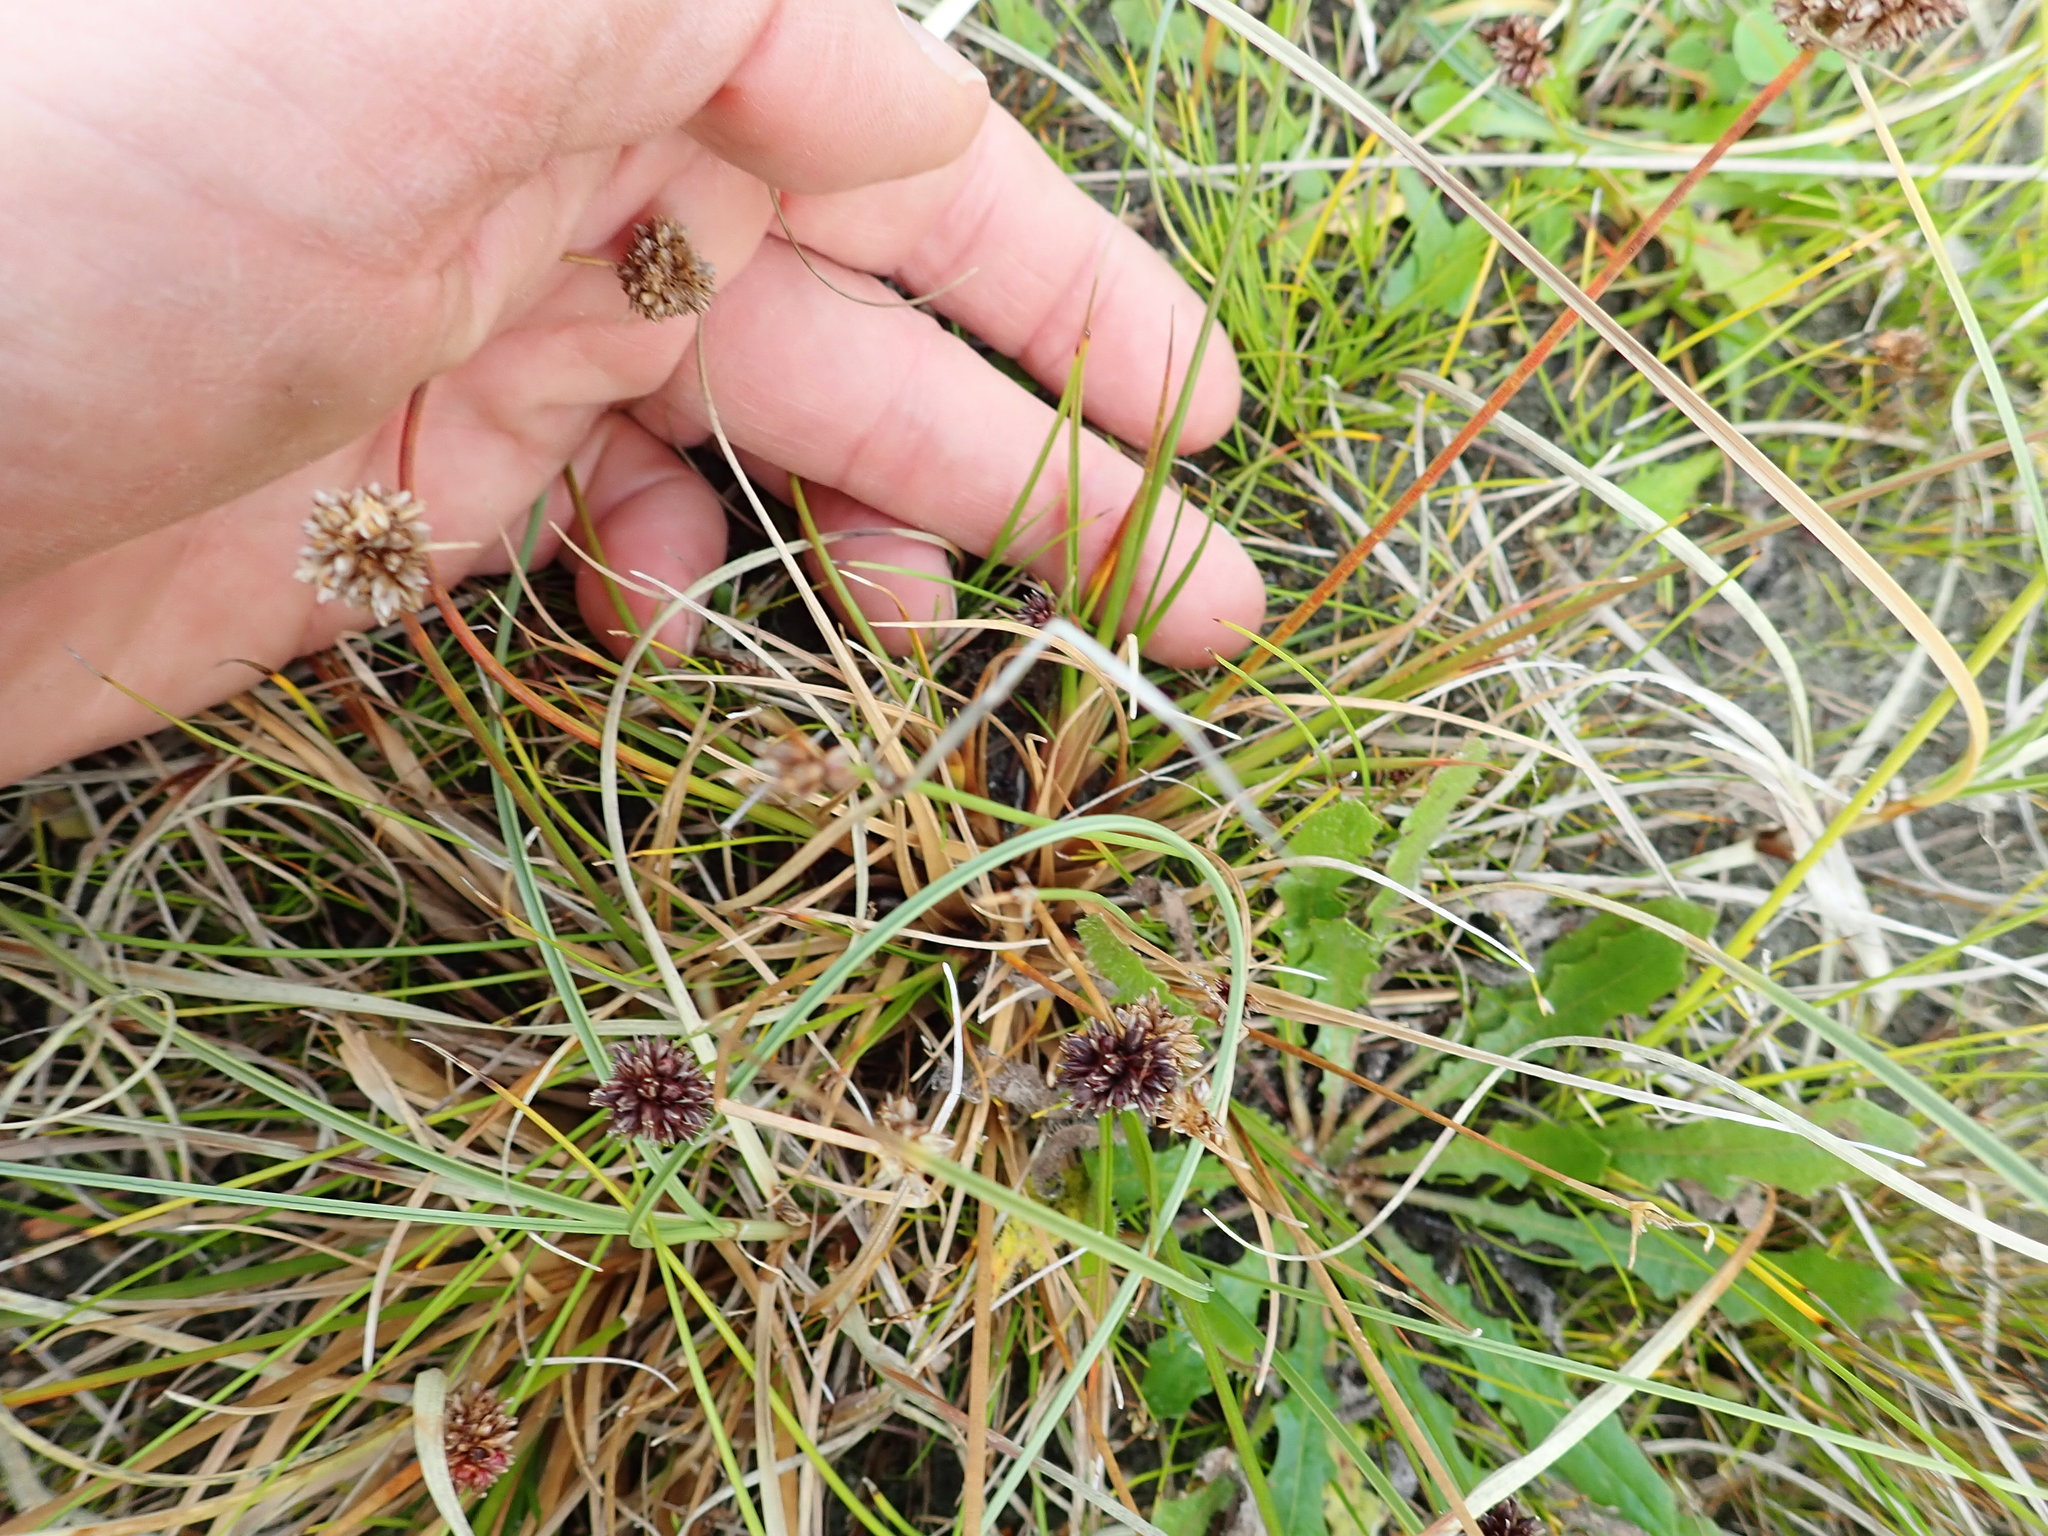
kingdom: Plantae
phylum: Tracheophyta
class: Liliopsida
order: Poales
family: Juncaceae
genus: Juncus
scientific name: Juncus caespiticius
